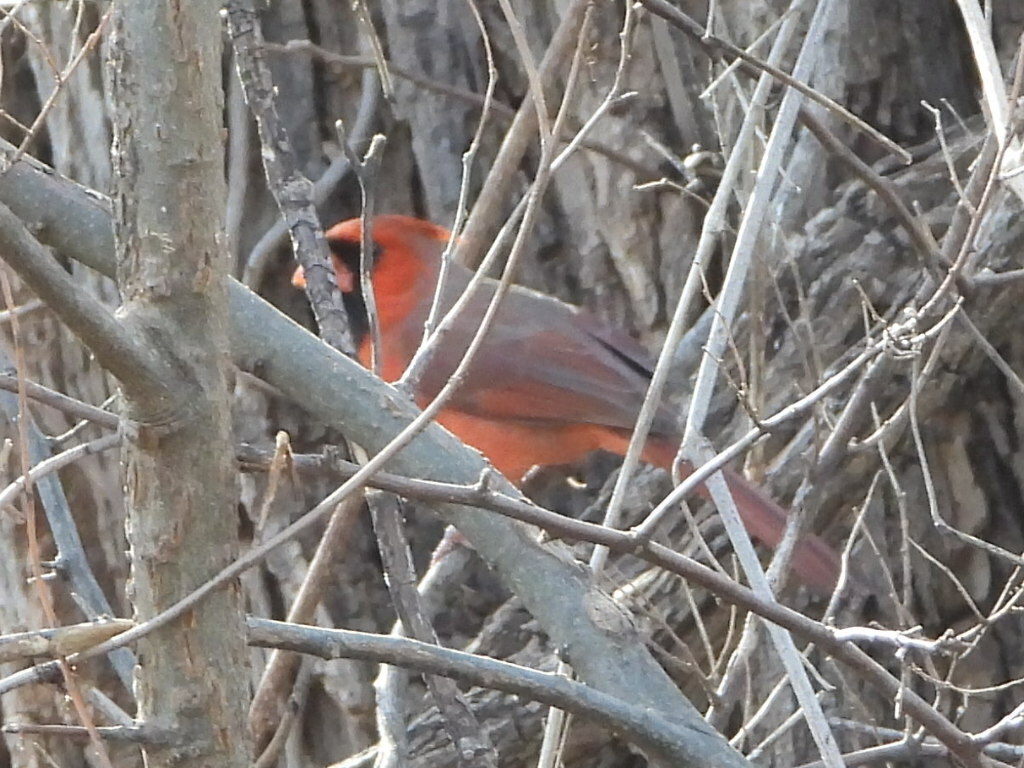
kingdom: Animalia
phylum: Chordata
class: Aves
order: Passeriformes
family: Cardinalidae
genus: Cardinalis
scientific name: Cardinalis cardinalis
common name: Northern cardinal
